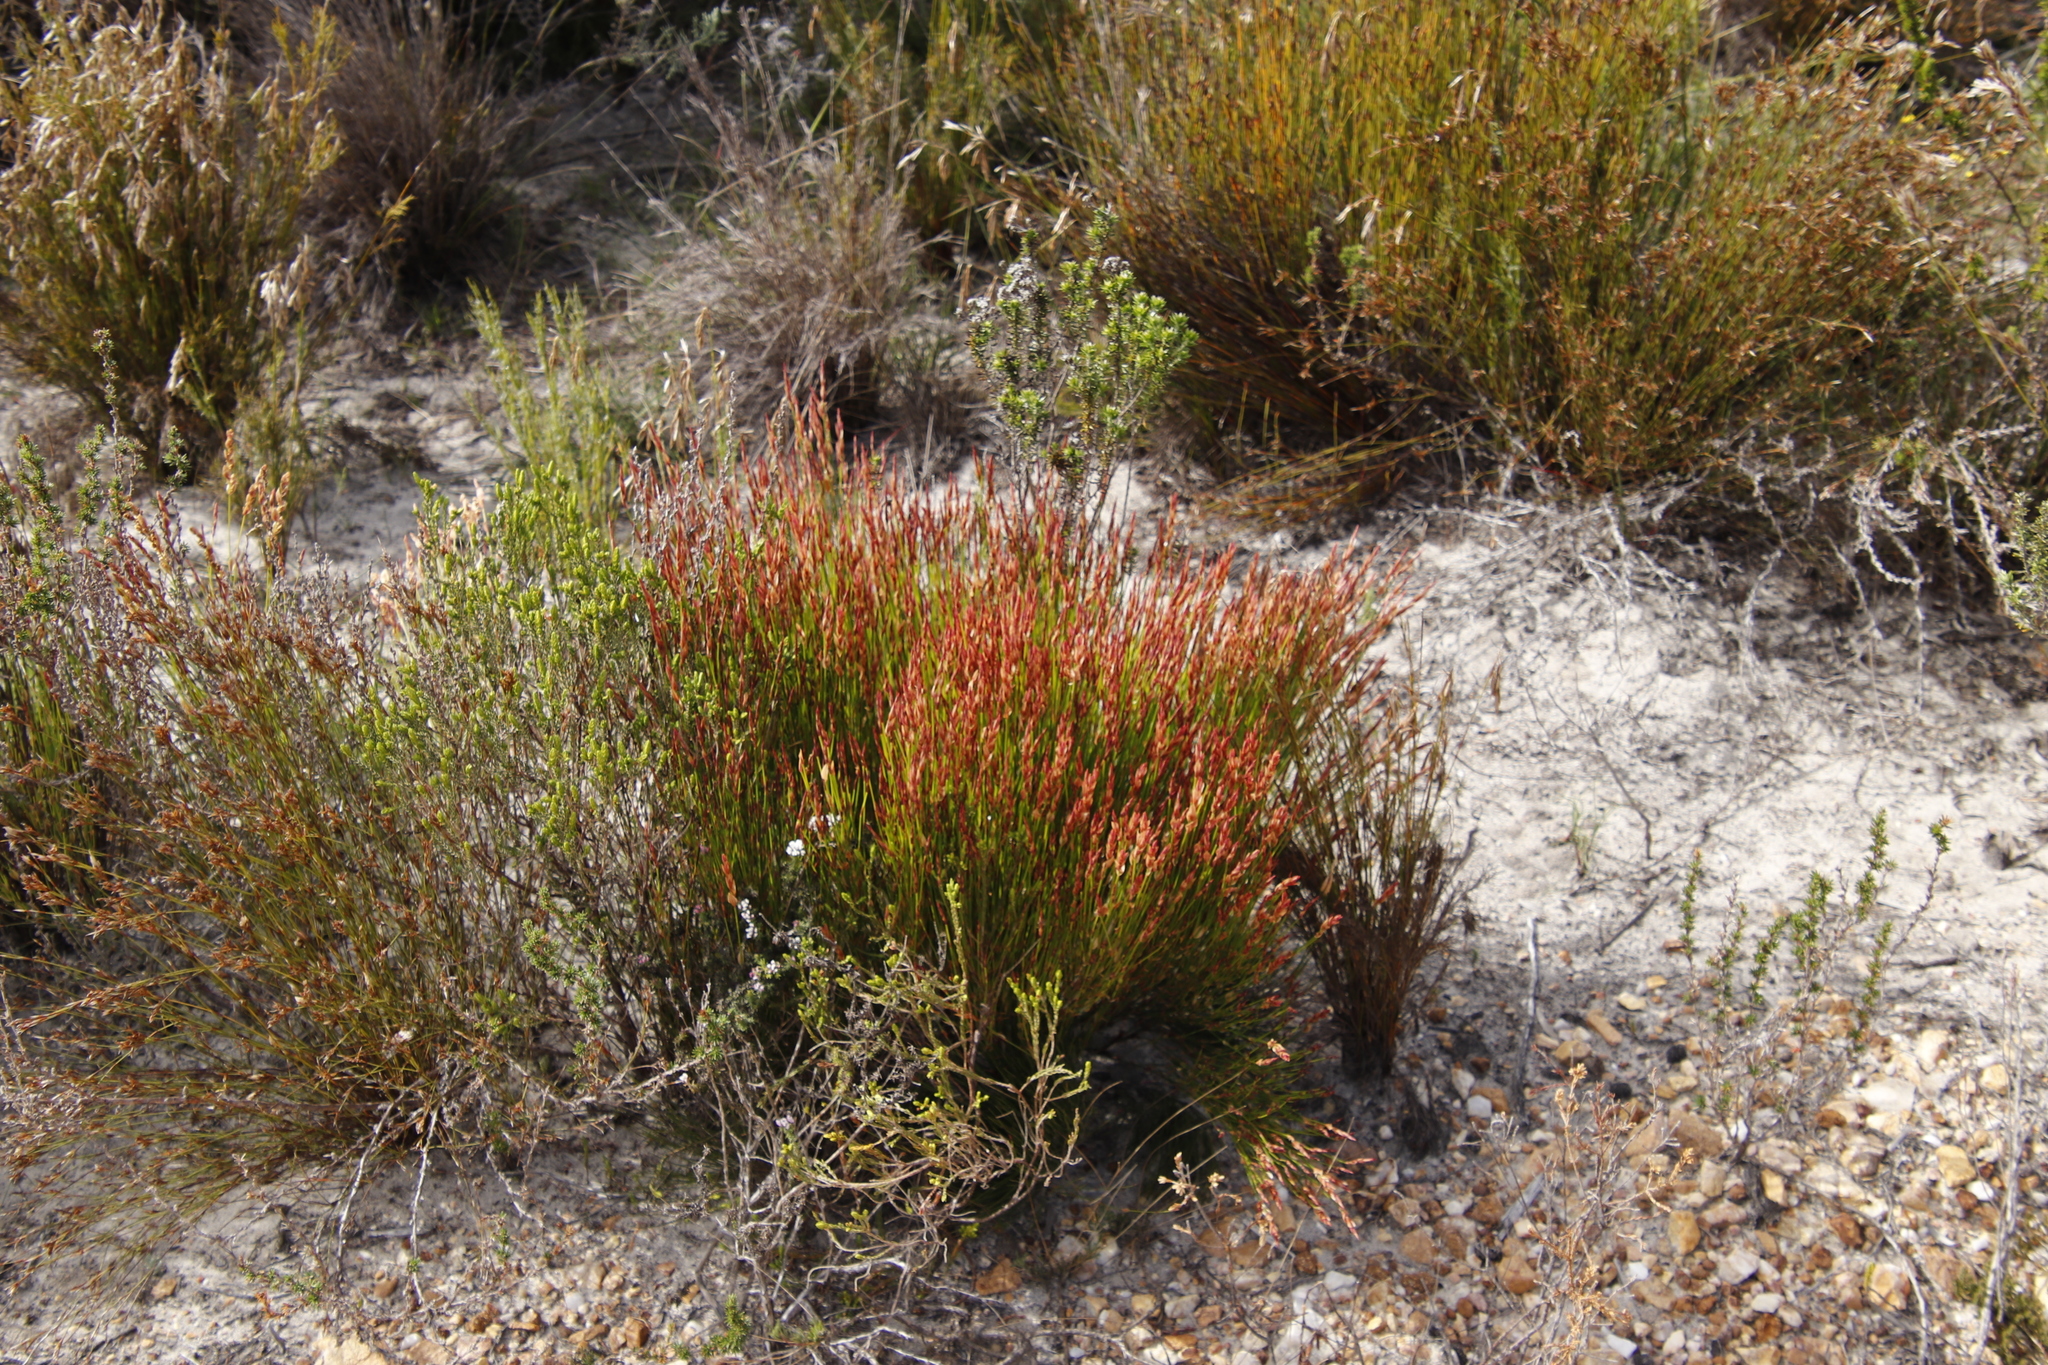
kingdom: Plantae
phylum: Tracheophyta
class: Liliopsida
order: Poales
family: Restionaceae
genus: Elegia
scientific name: Elegia stipularis
